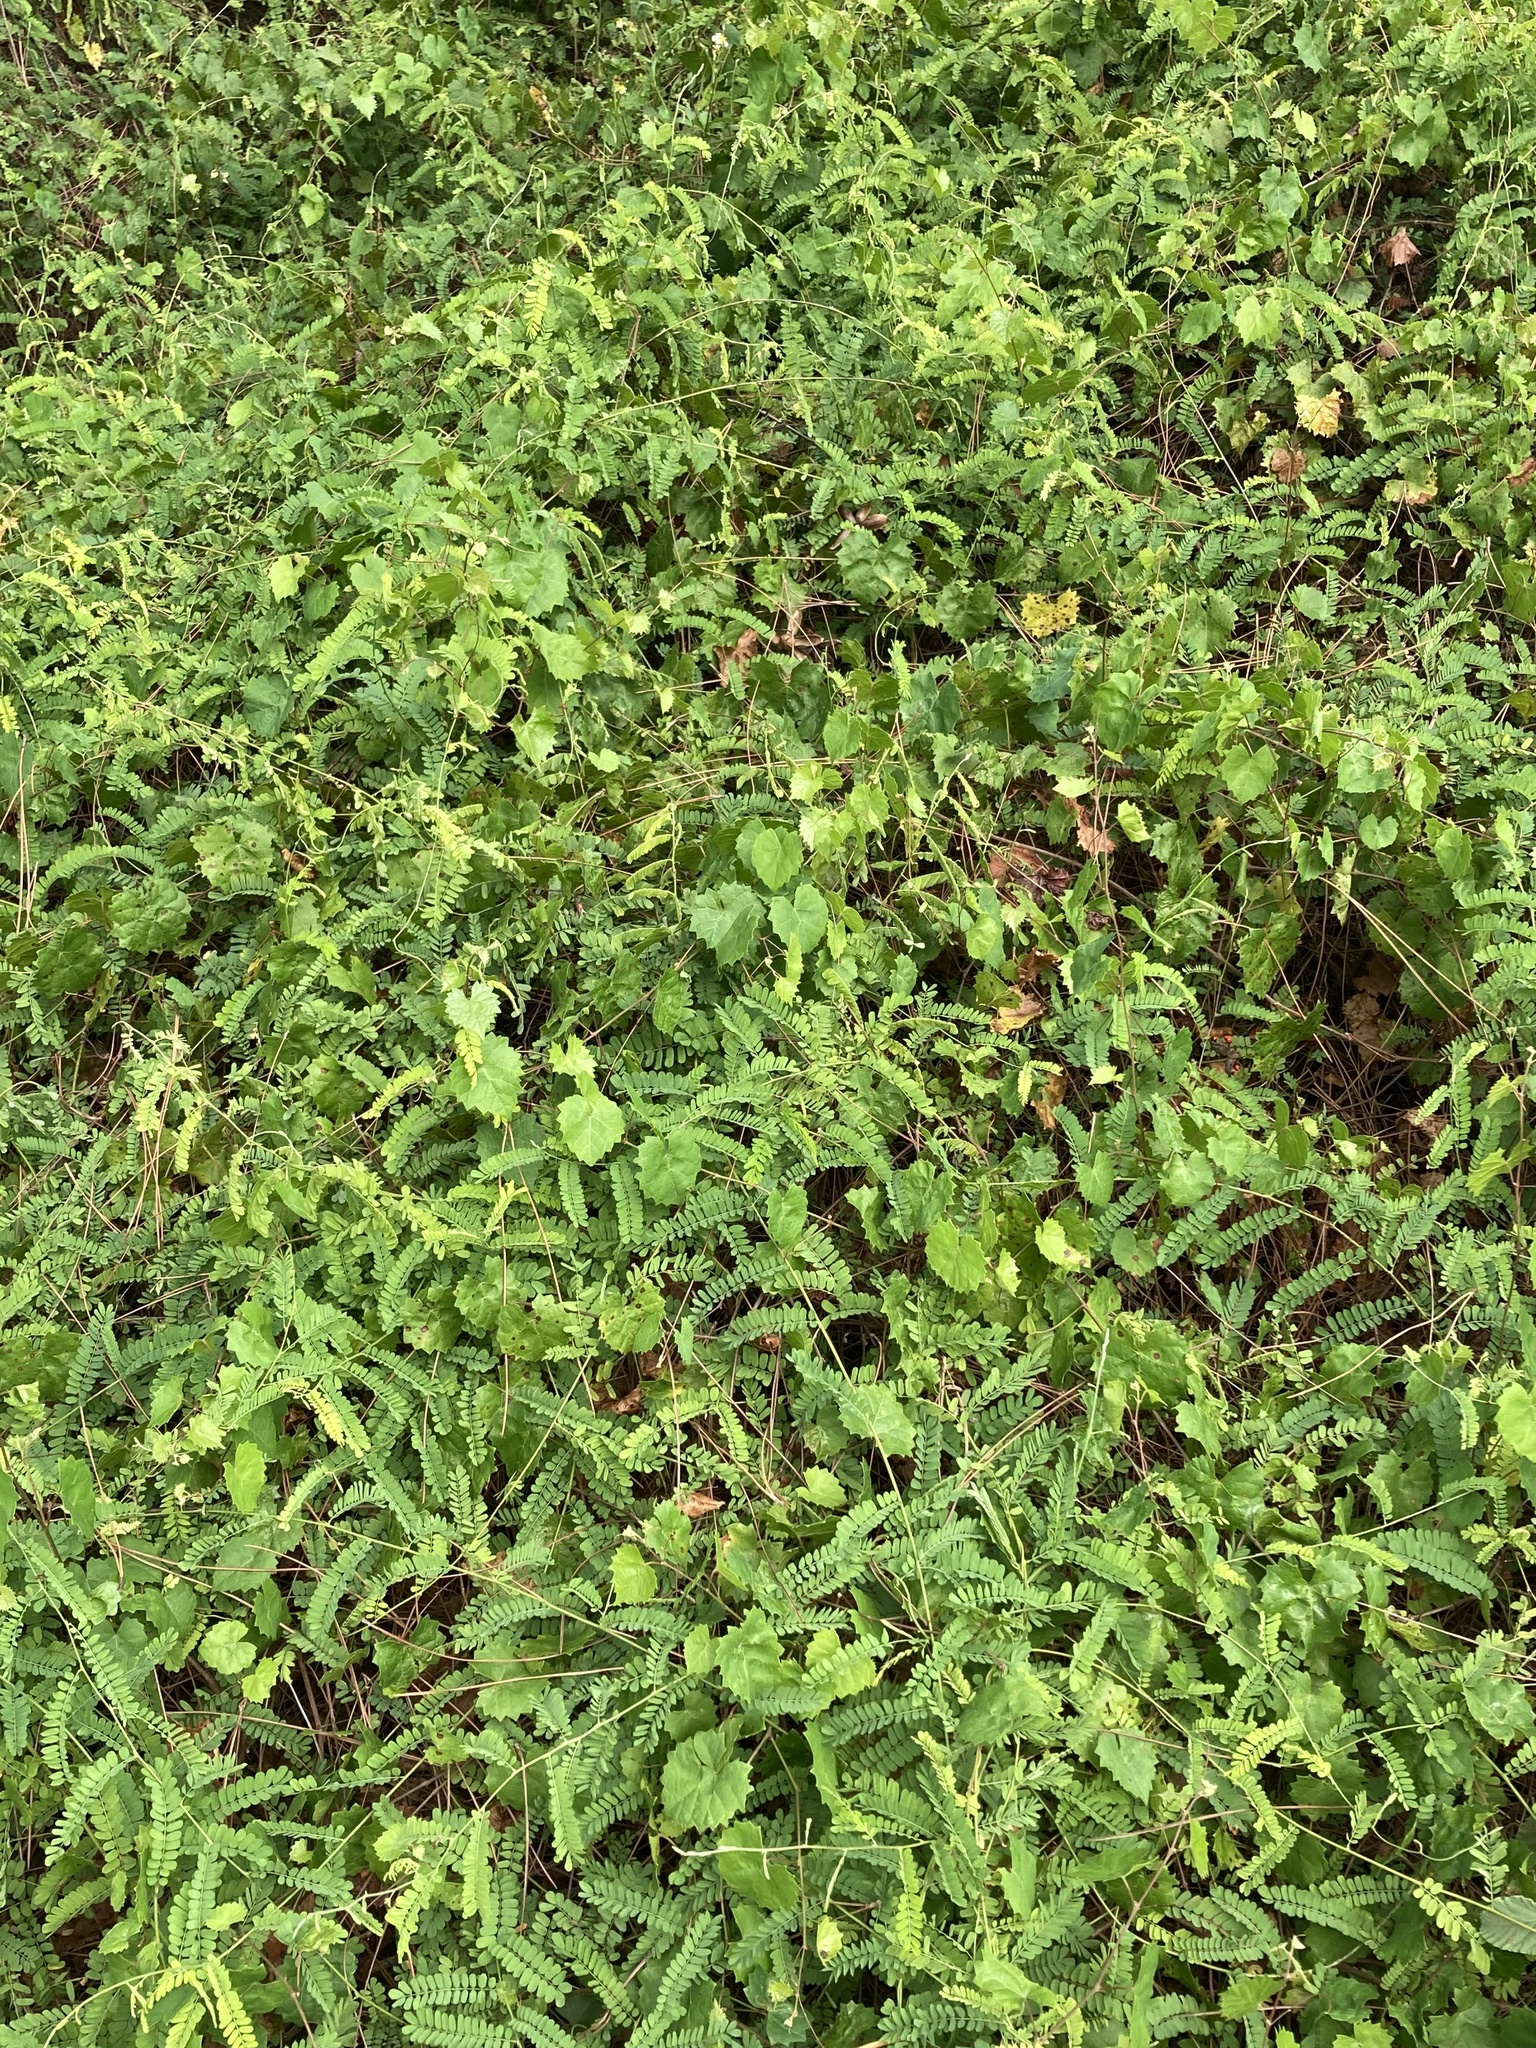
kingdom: Plantae
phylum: Tracheophyta
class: Magnoliopsida
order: Fabales
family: Fabaceae
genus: Abrus
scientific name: Abrus precatorius
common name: Rosarypea
